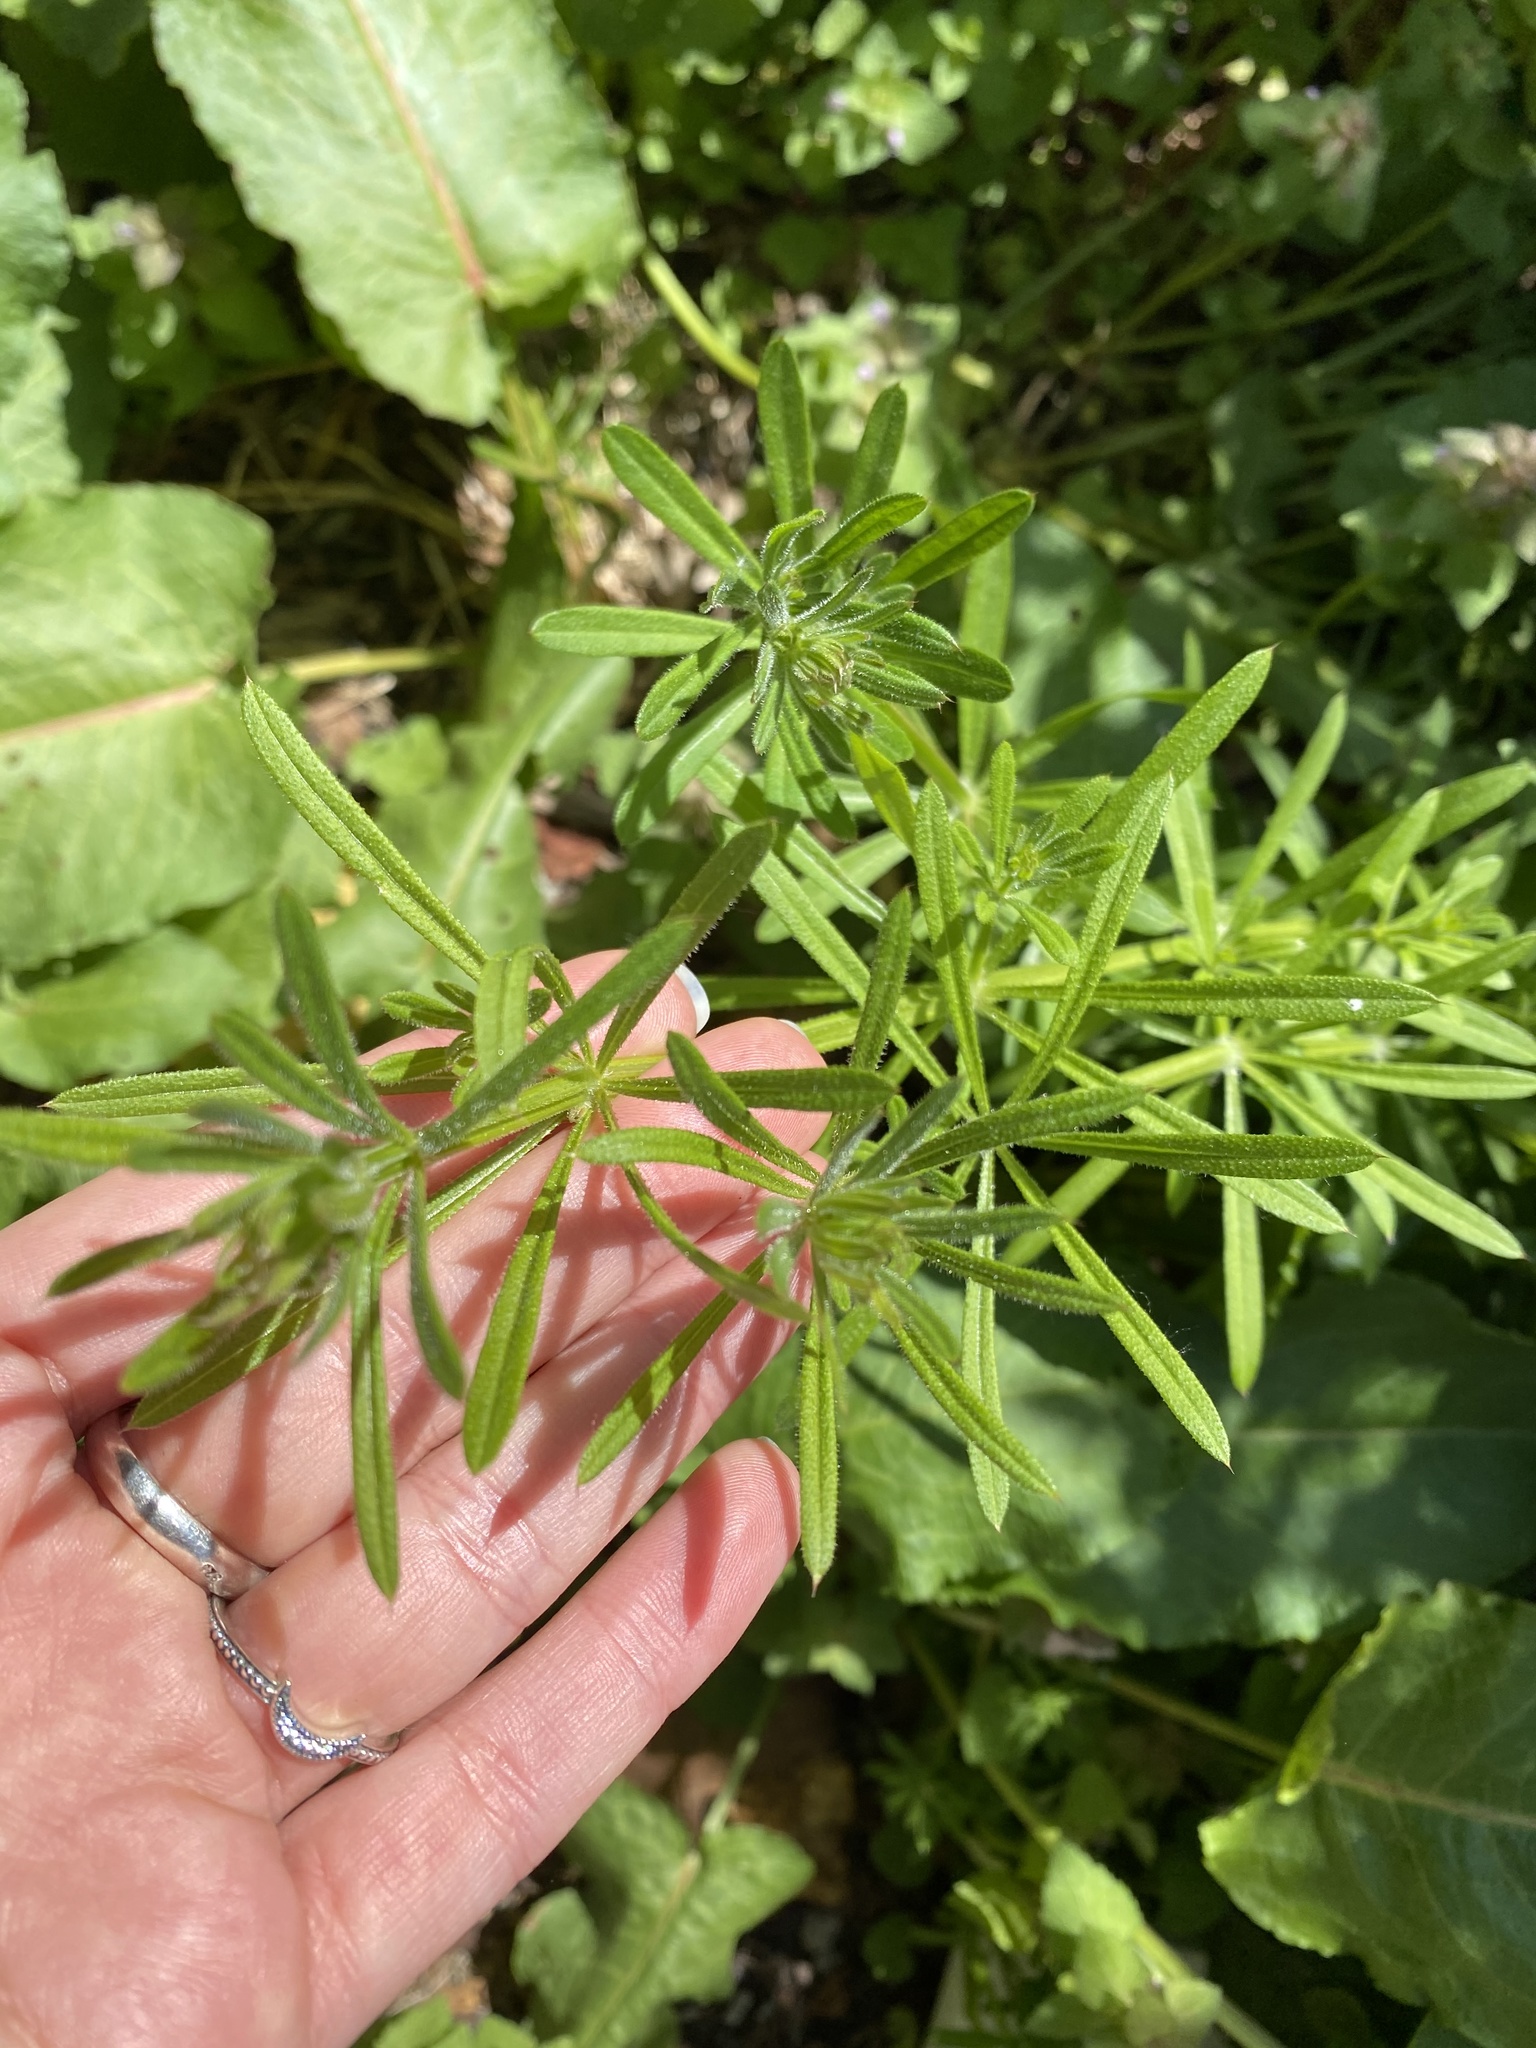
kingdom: Plantae
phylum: Tracheophyta
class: Magnoliopsida
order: Gentianales
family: Rubiaceae
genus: Galium
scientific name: Galium aparine
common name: Cleavers
